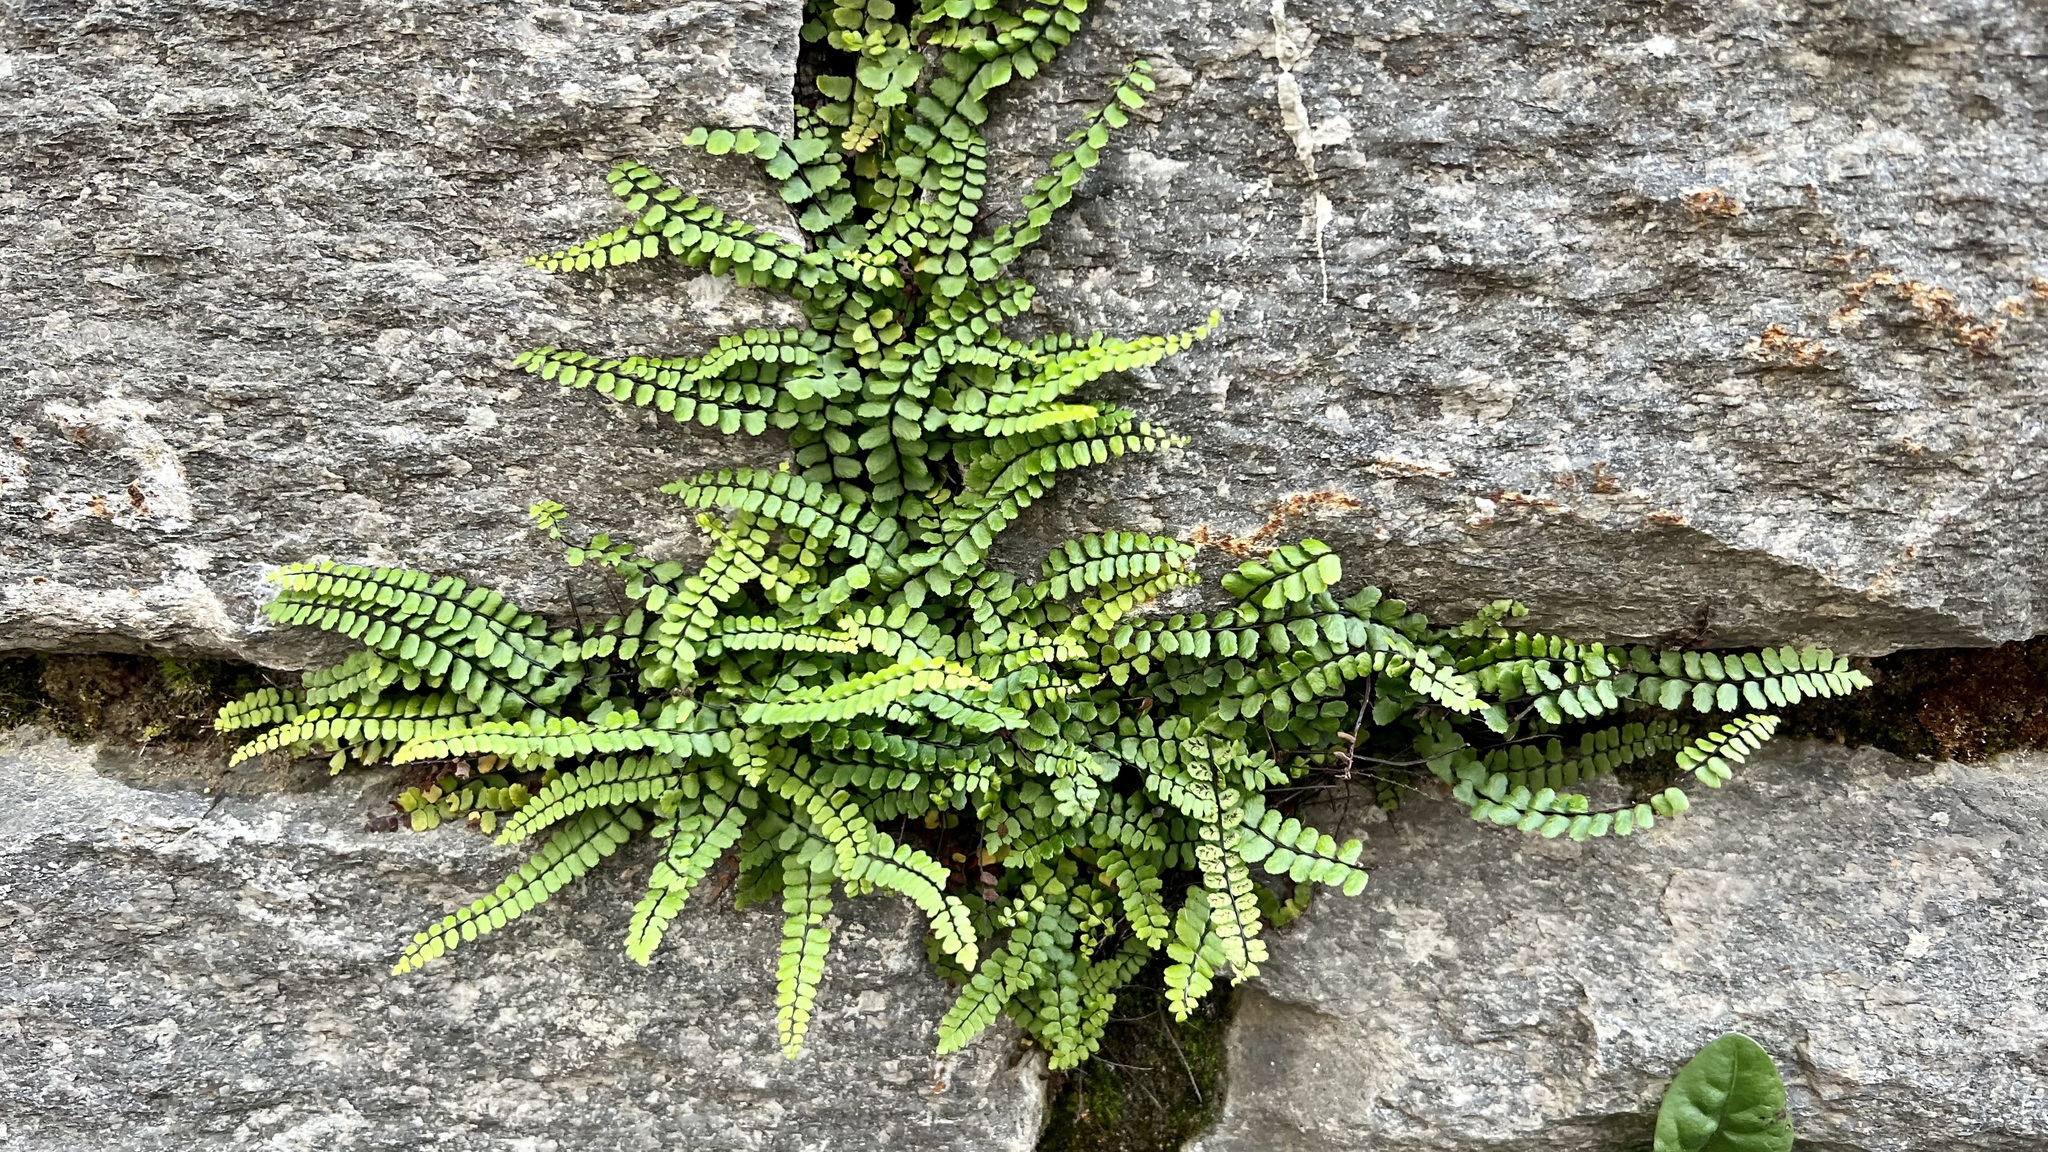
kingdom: Plantae
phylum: Tracheophyta
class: Polypodiopsida
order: Polypodiales
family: Aspleniaceae
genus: Asplenium
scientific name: Asplenium trichomanes
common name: Maidenhair spleenwort
